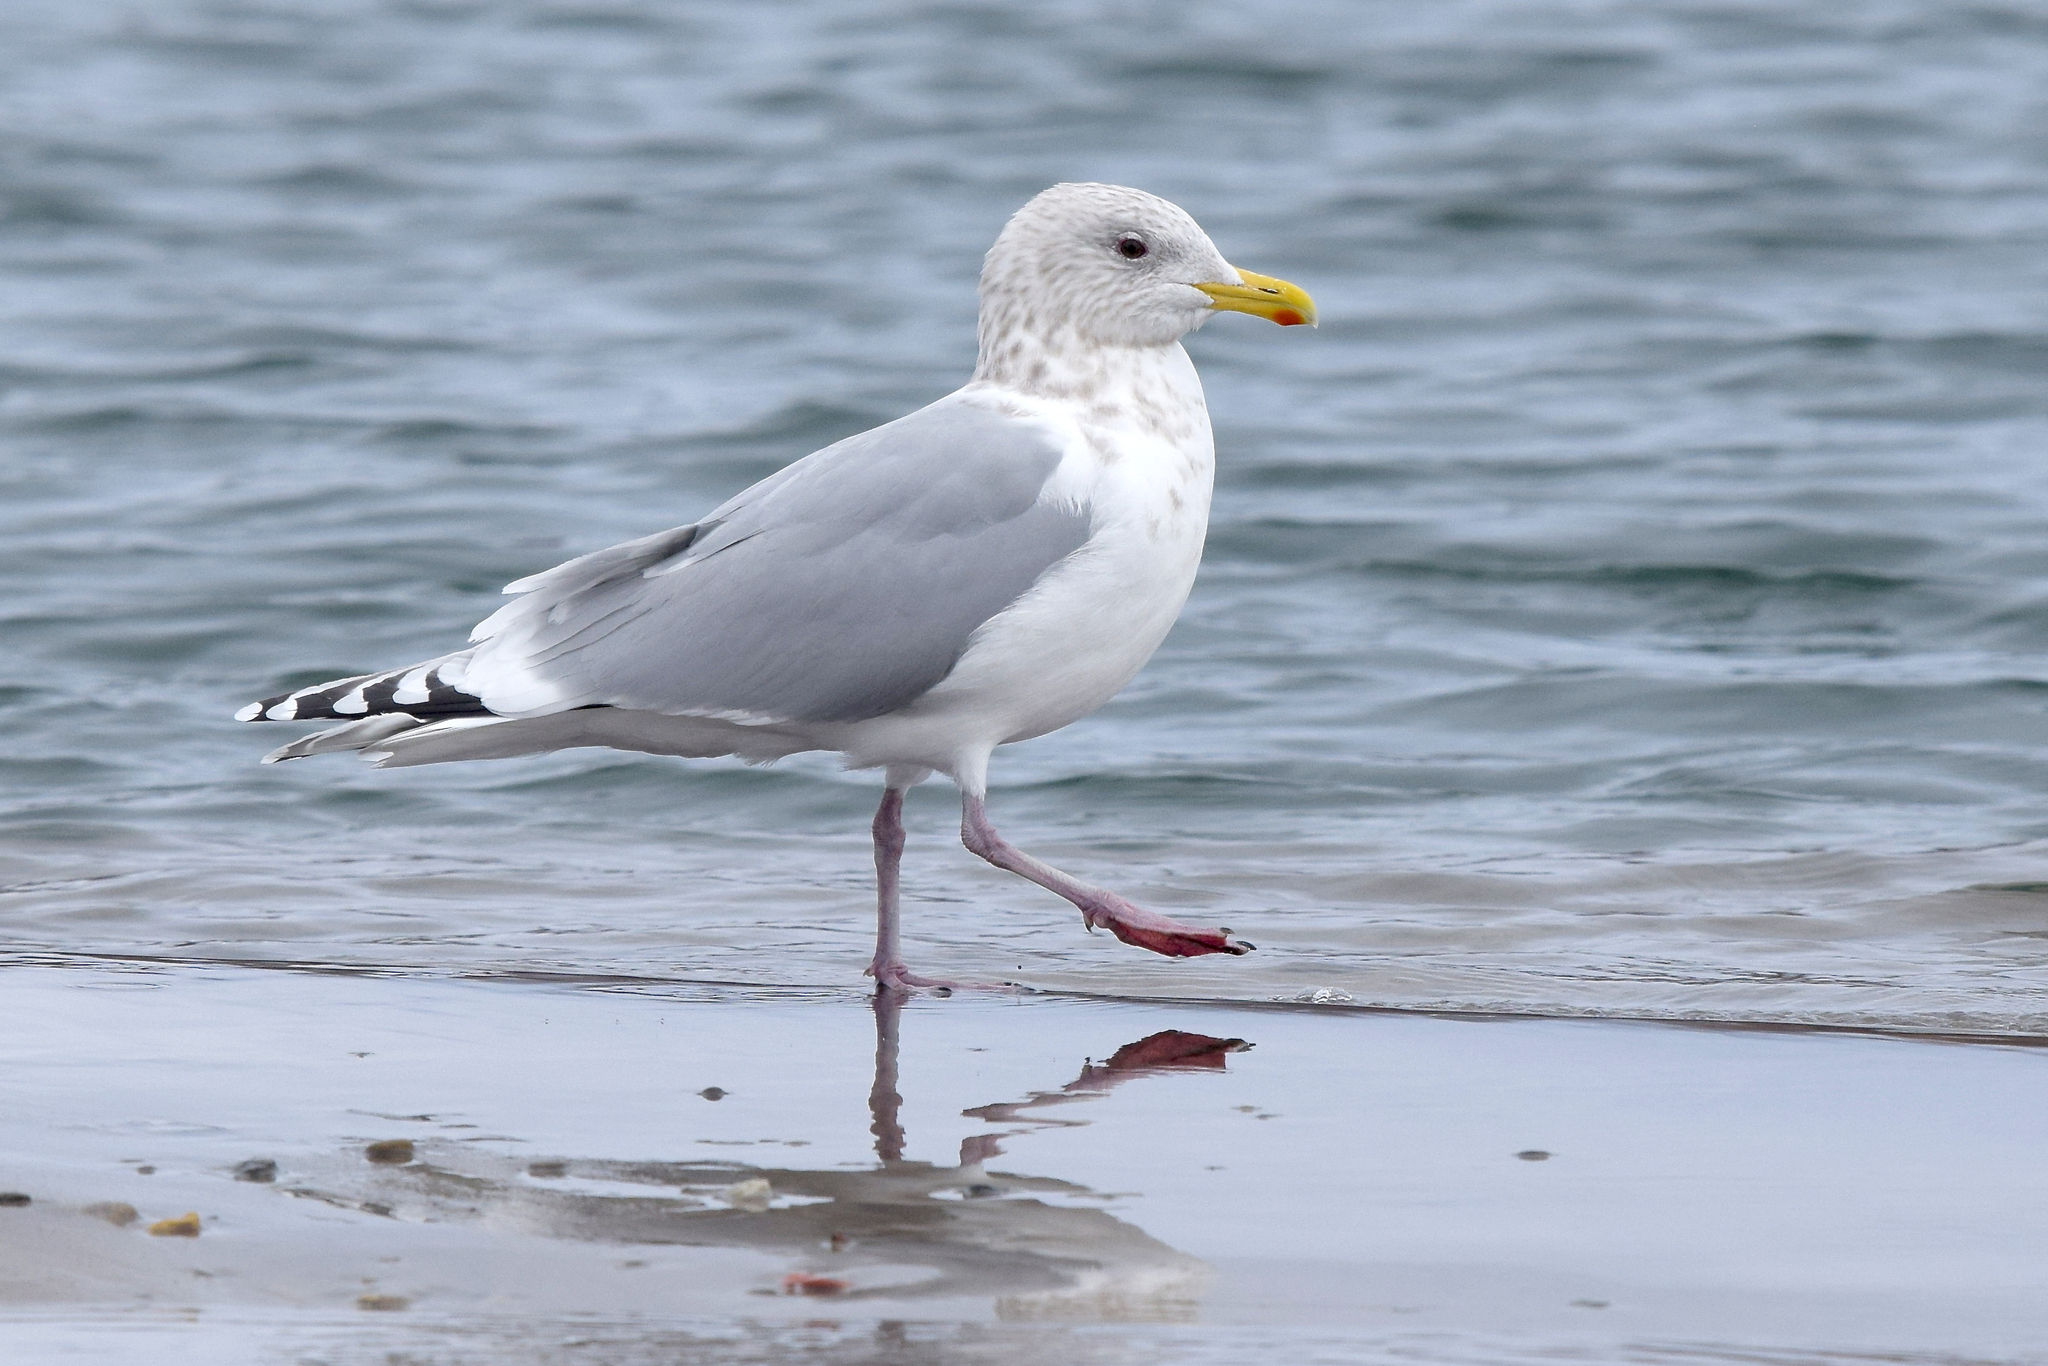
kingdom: Animalia
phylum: Chordata
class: Aves
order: Charadriiformes
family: Laridae
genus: Larus
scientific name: Larus glaucoides
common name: Iceland gull
